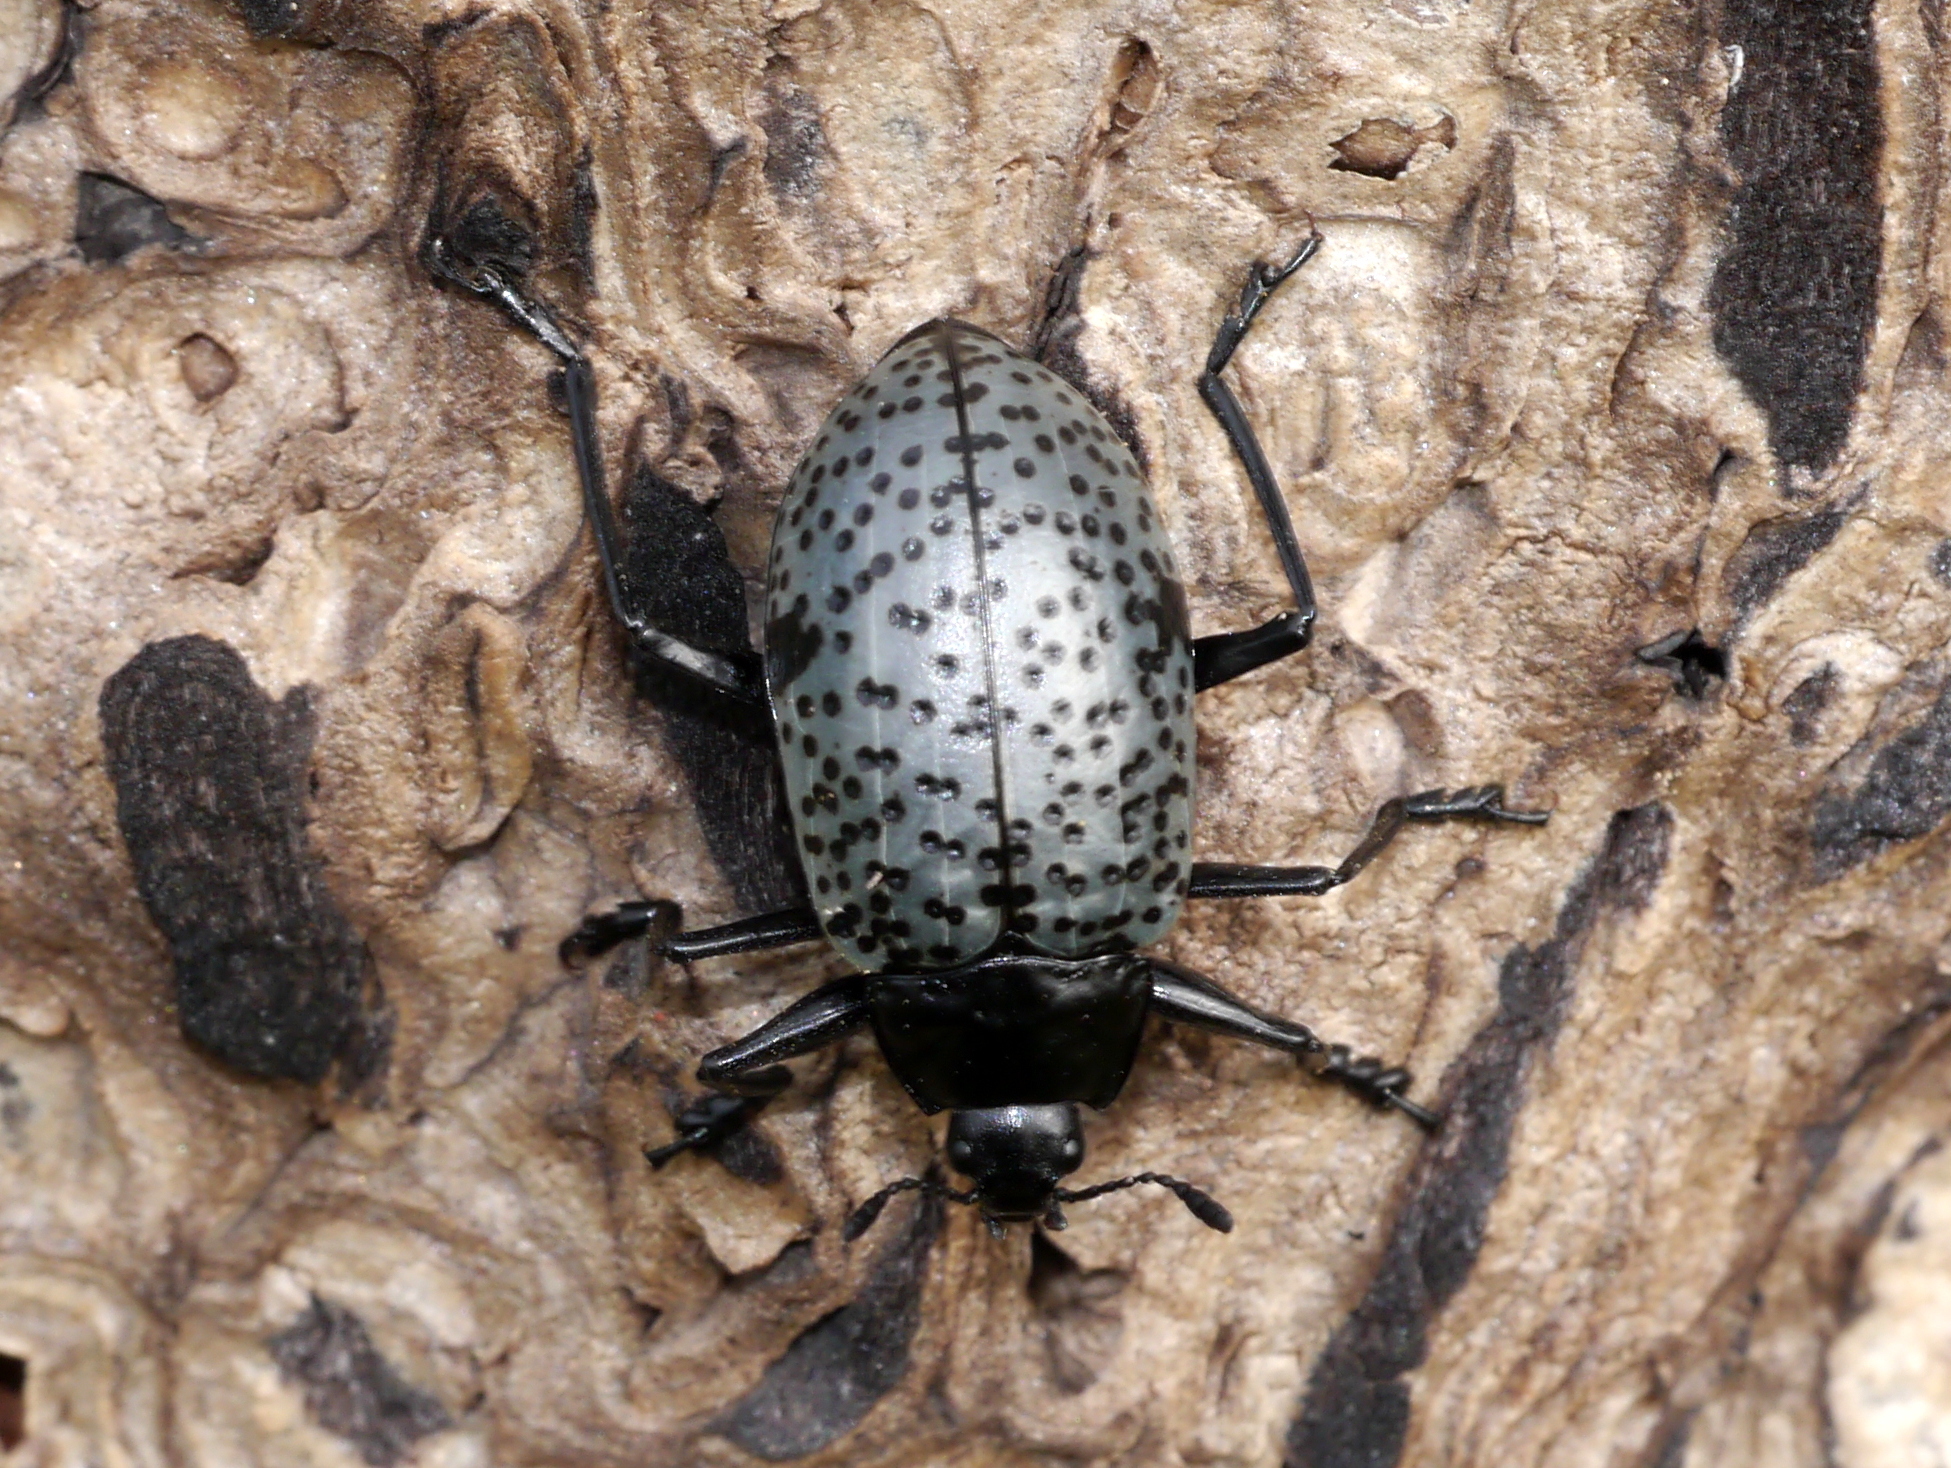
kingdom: Animalia
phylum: Arthropoda
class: Insecta
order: Coleoptera
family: Erotylidae
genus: Gibbifer
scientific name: Gibbifer californicus
